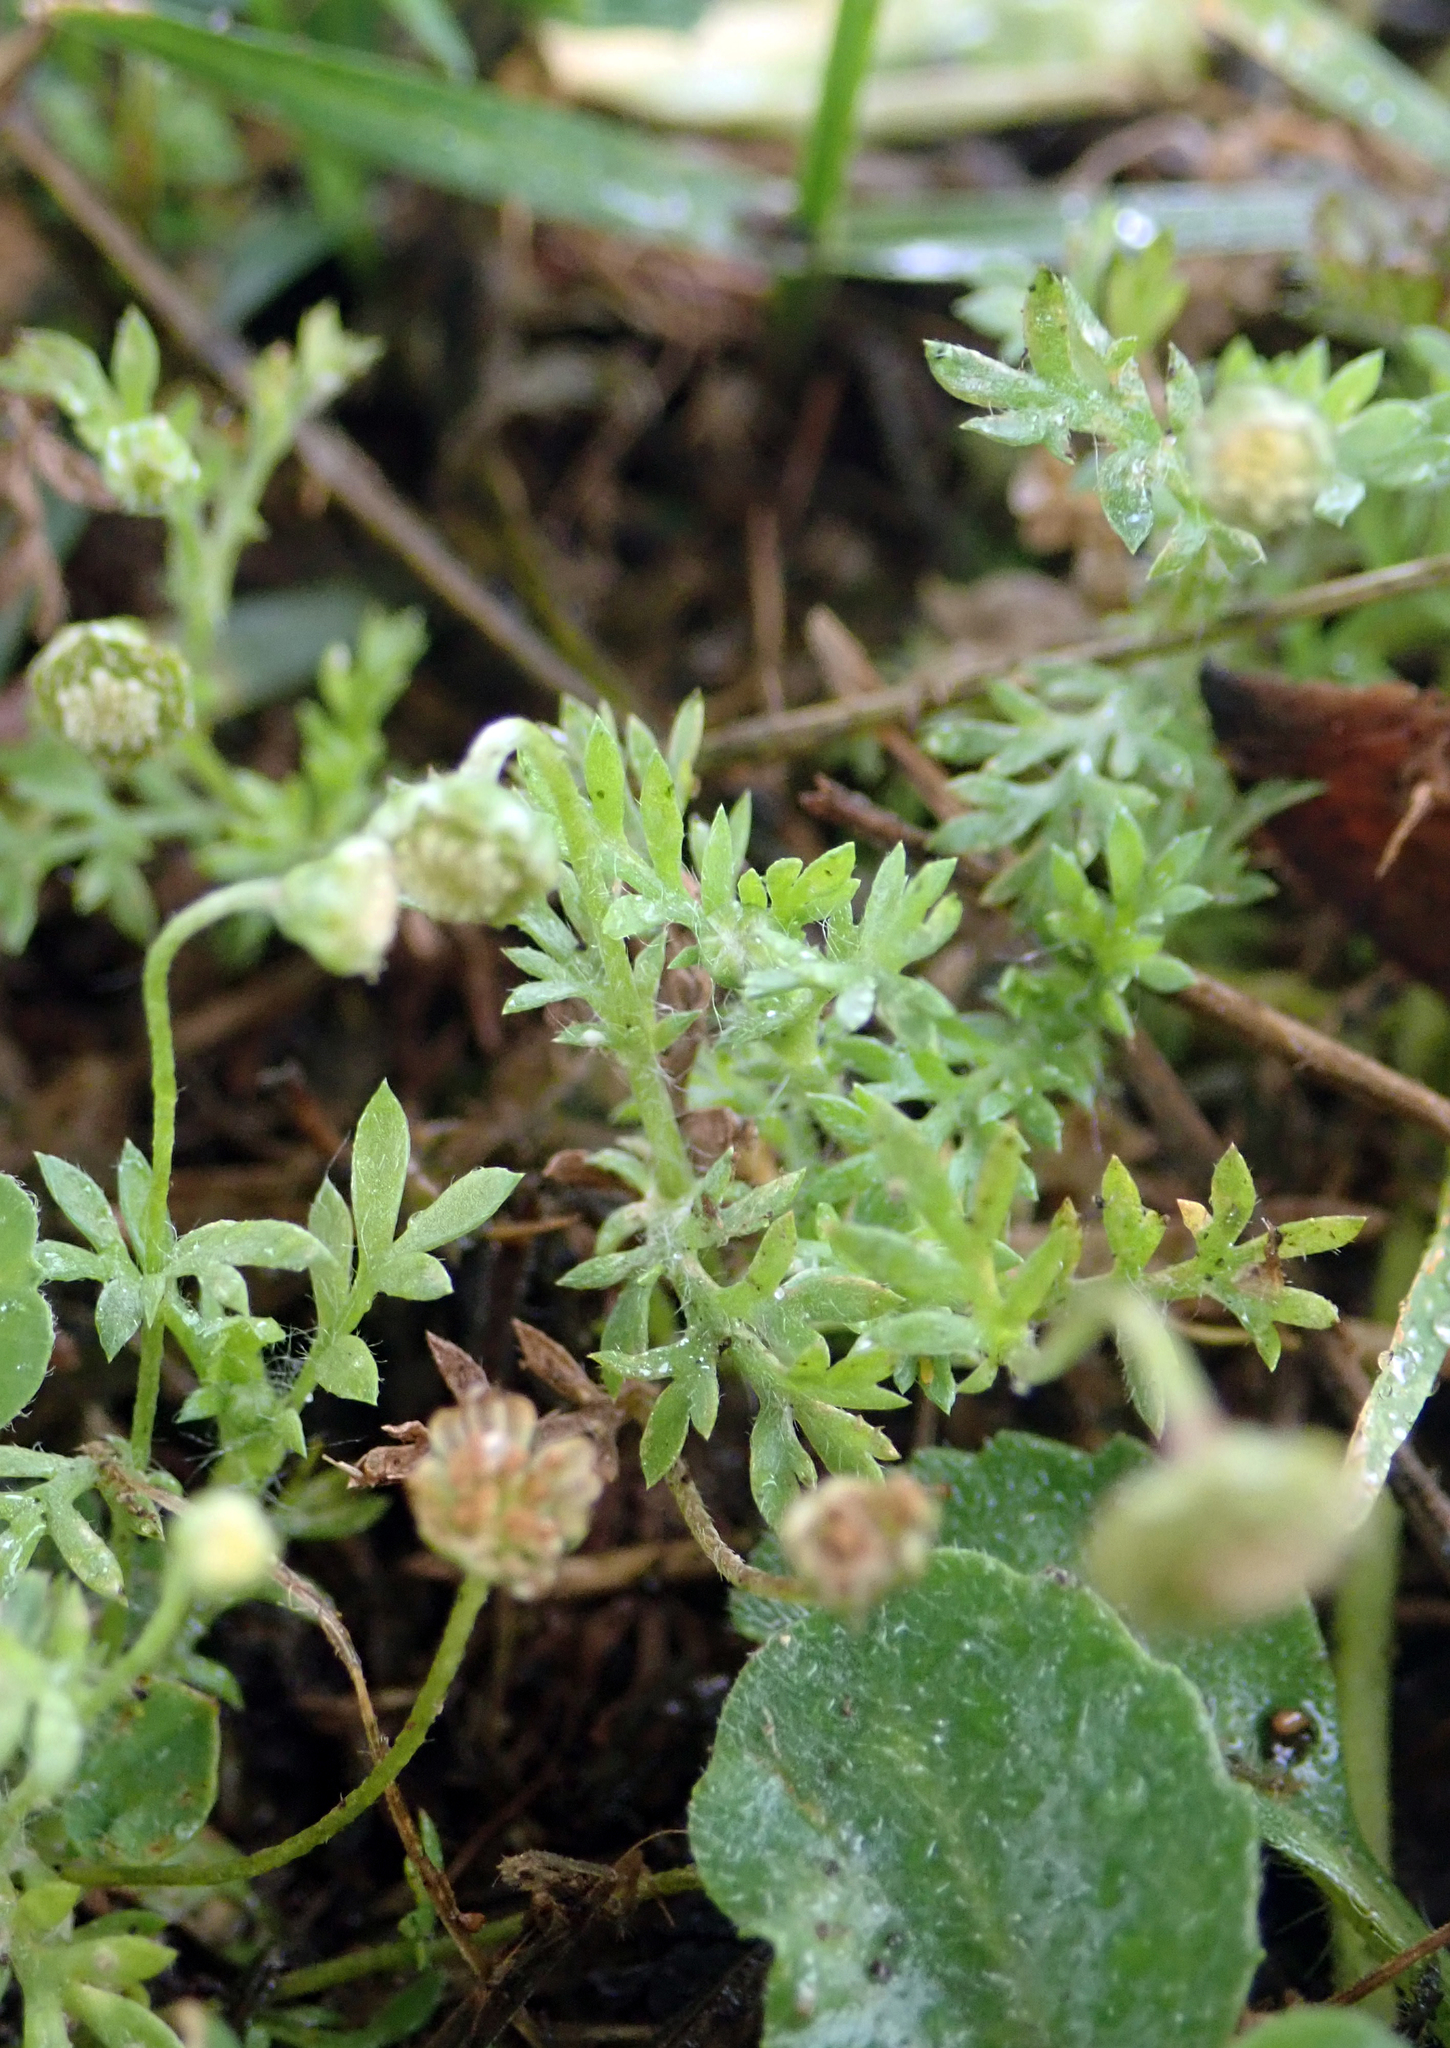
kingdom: Plantae
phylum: Tracheophyta
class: Magnoliopsida
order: Asterales
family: Asteraceae
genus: Cotula
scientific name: Cotula australis
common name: Australian waterbuttons
